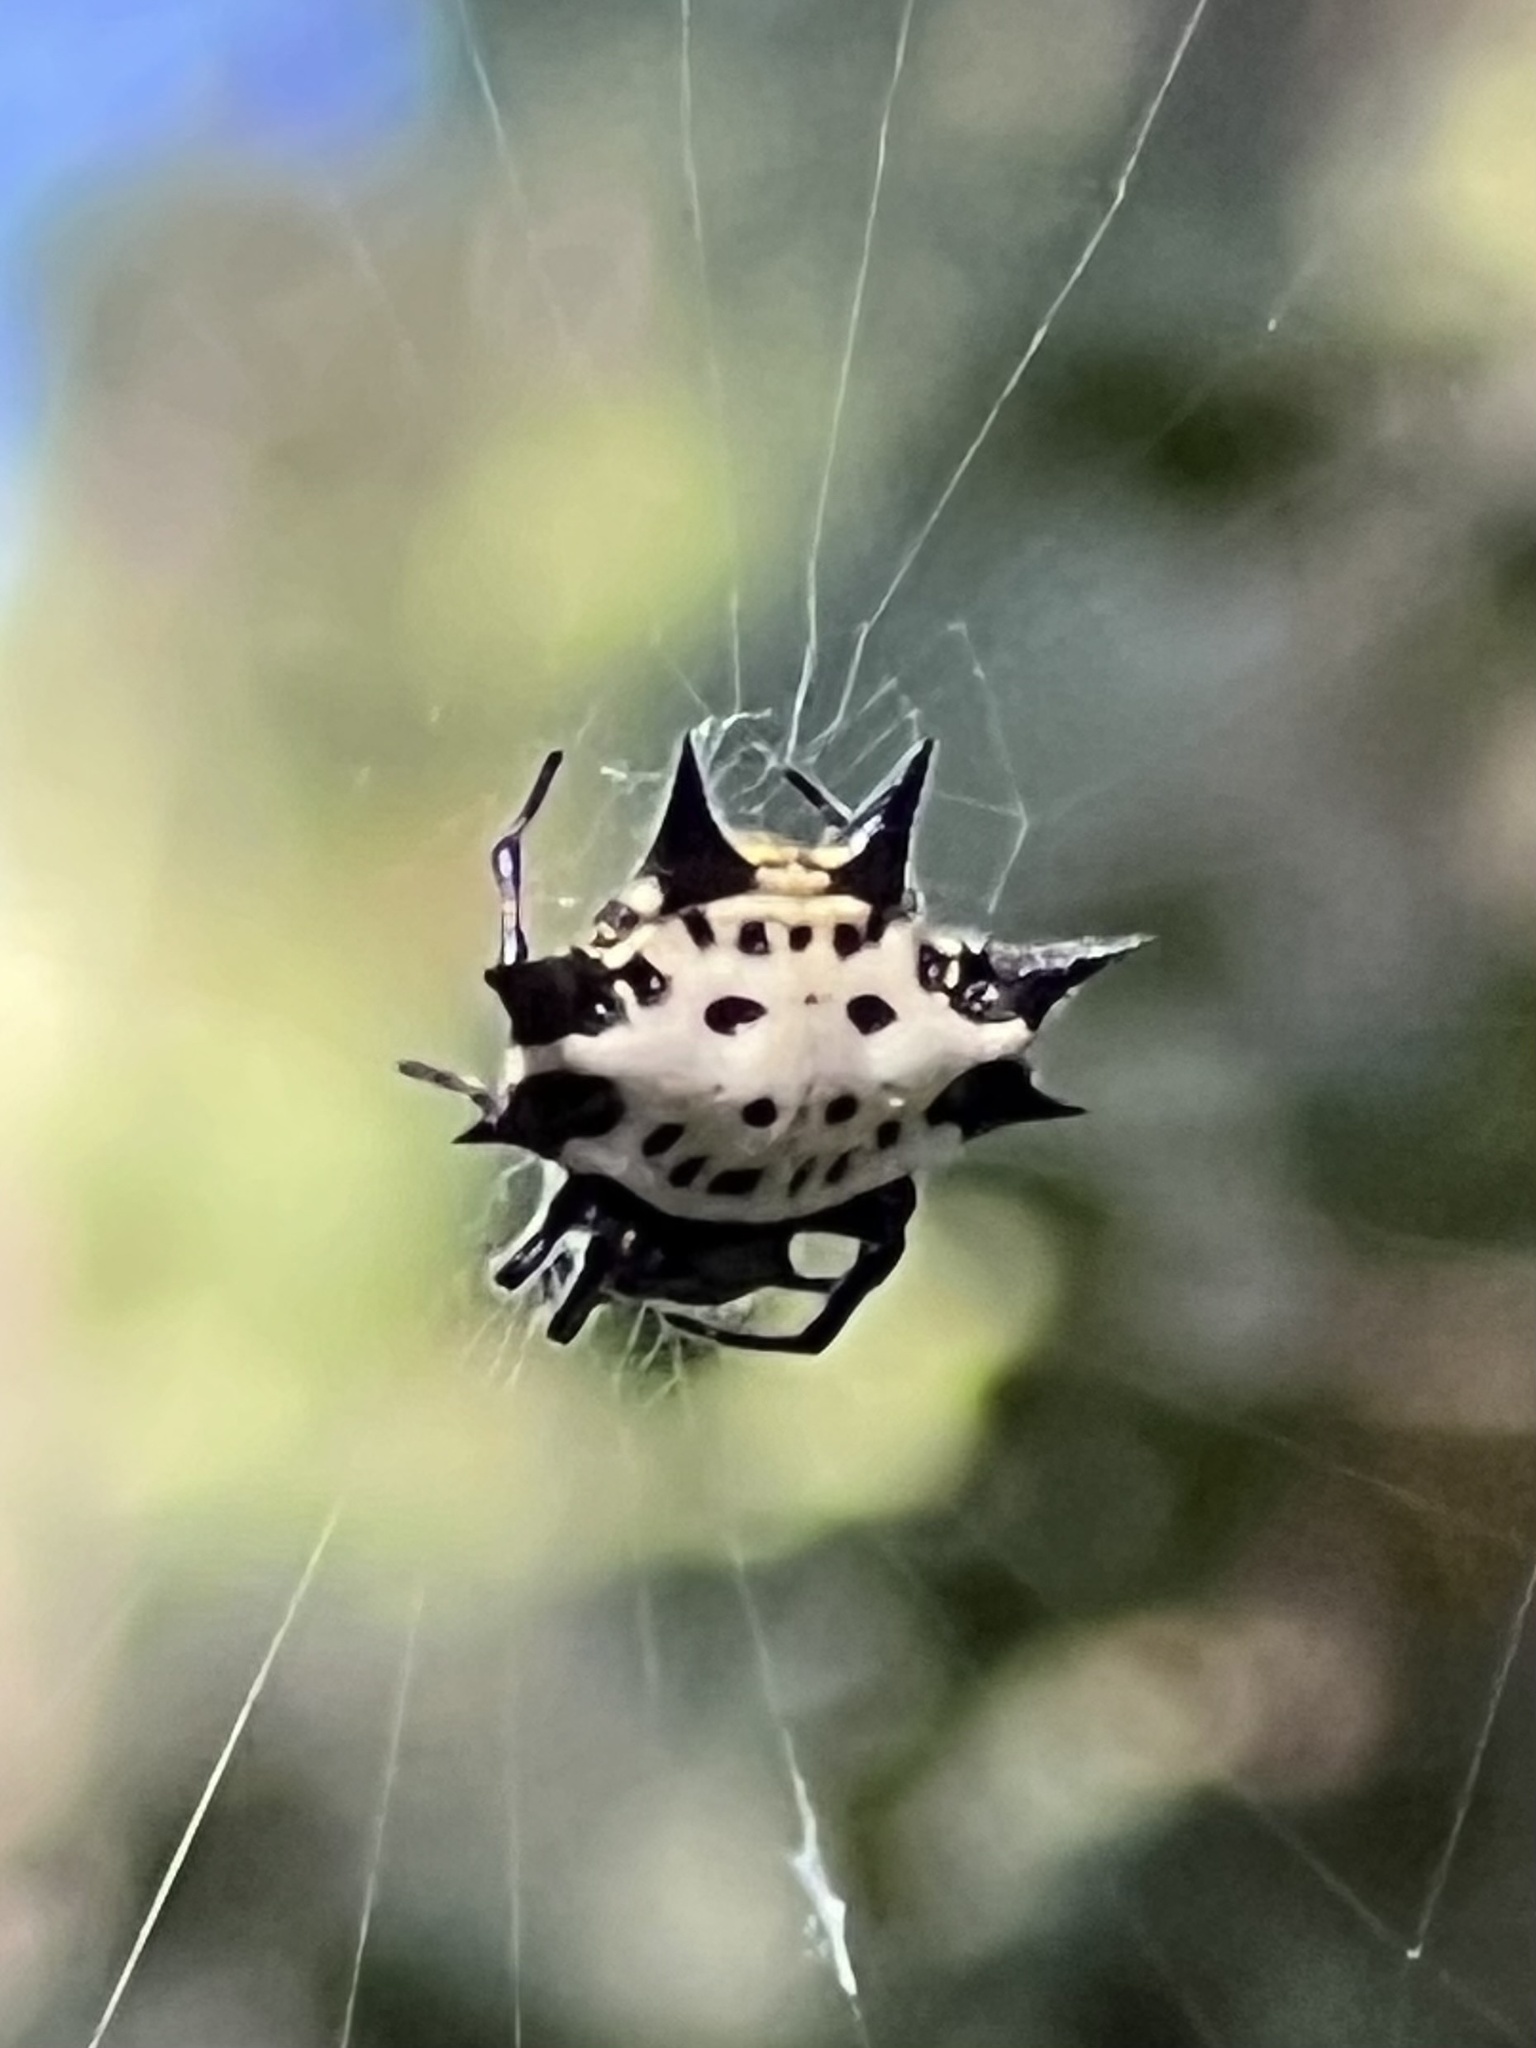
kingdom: Animalia
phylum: Arthropoda
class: Arachnida
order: Araneae
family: Araneidae
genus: Gasteracantha
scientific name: Gasteracantha cancriformis
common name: Orb weavers
